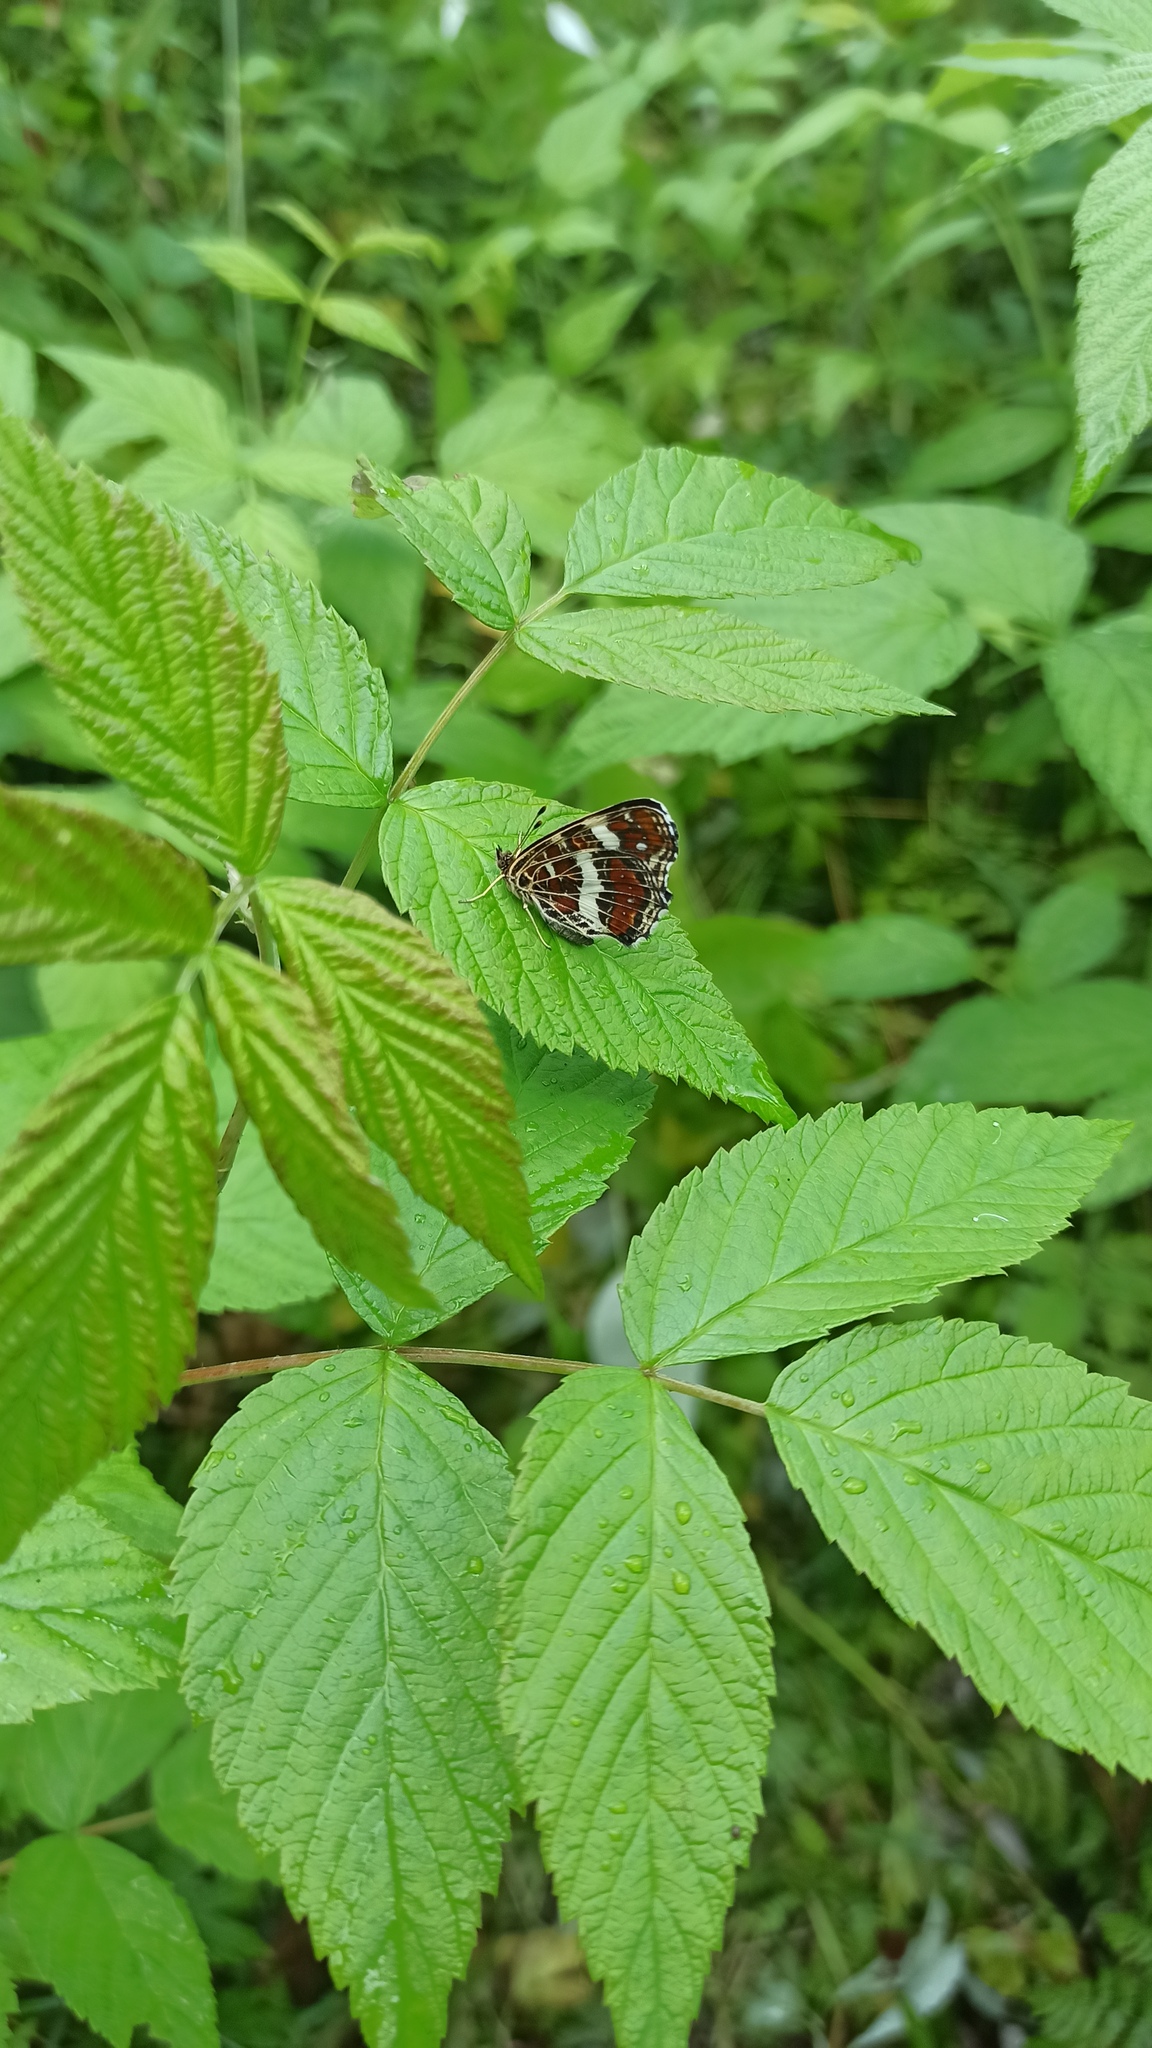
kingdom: Animalia
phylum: Arthropoda
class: Insecta
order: Lepidoptera
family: Nymphalidae
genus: Araschnia
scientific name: Araschnia levana
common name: Map butterfly
